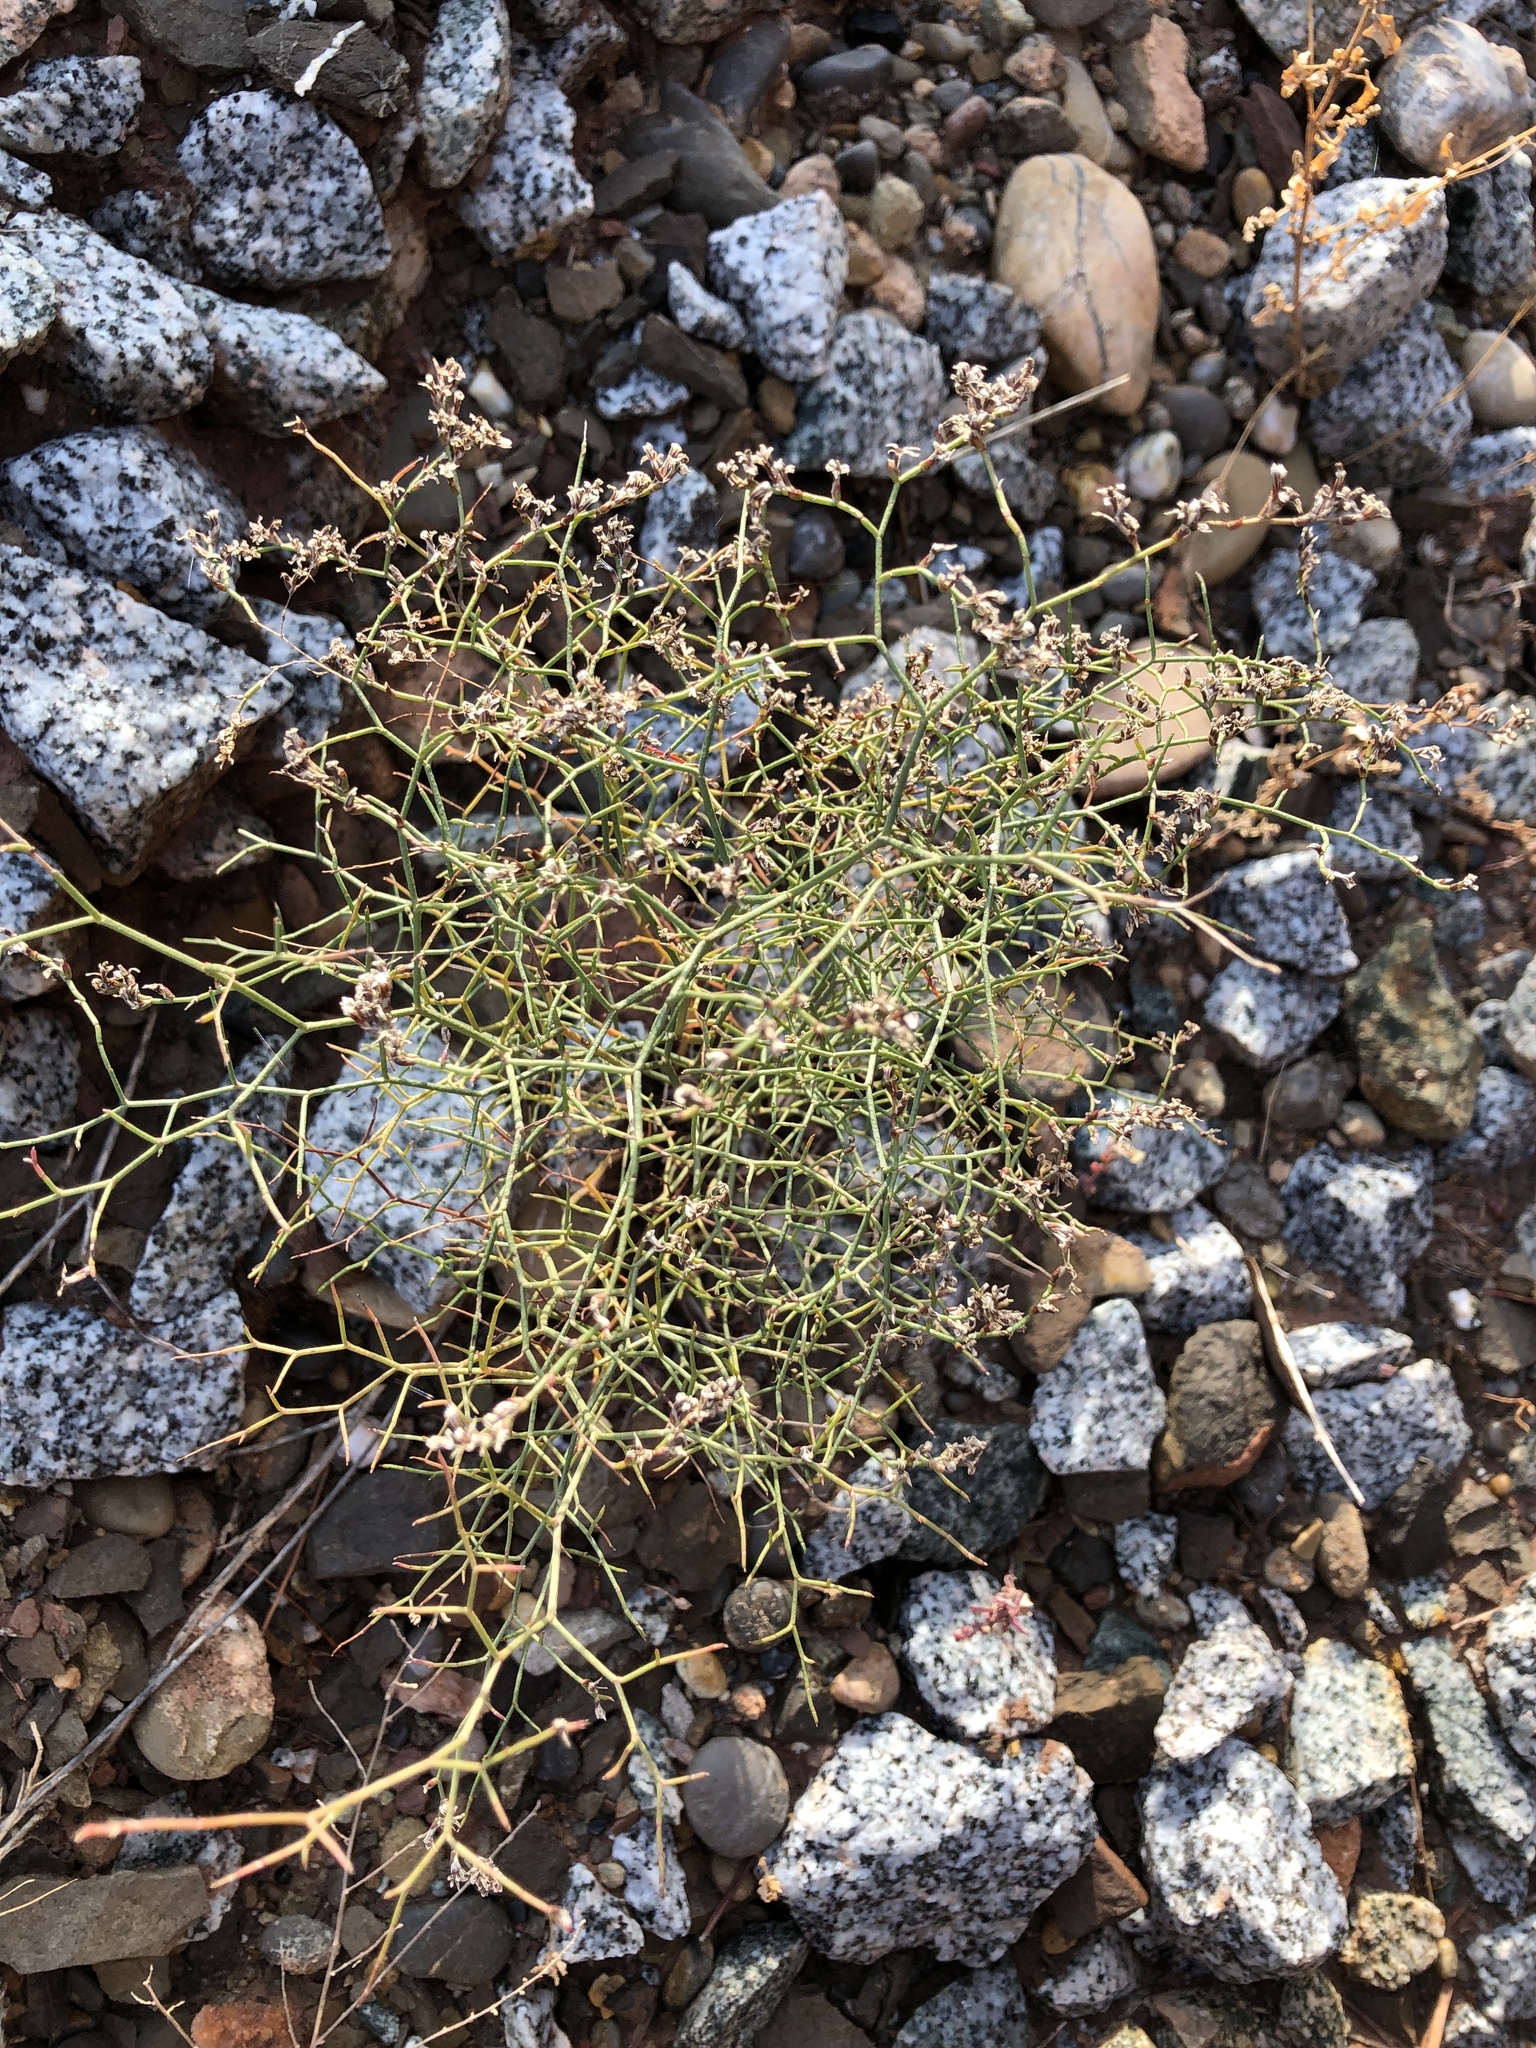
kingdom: Plantae
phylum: Tracheophyta
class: Magnoliopsida
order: Caryophyllales
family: Plumbaginaceae
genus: Limonium
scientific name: Limonium hibericum
